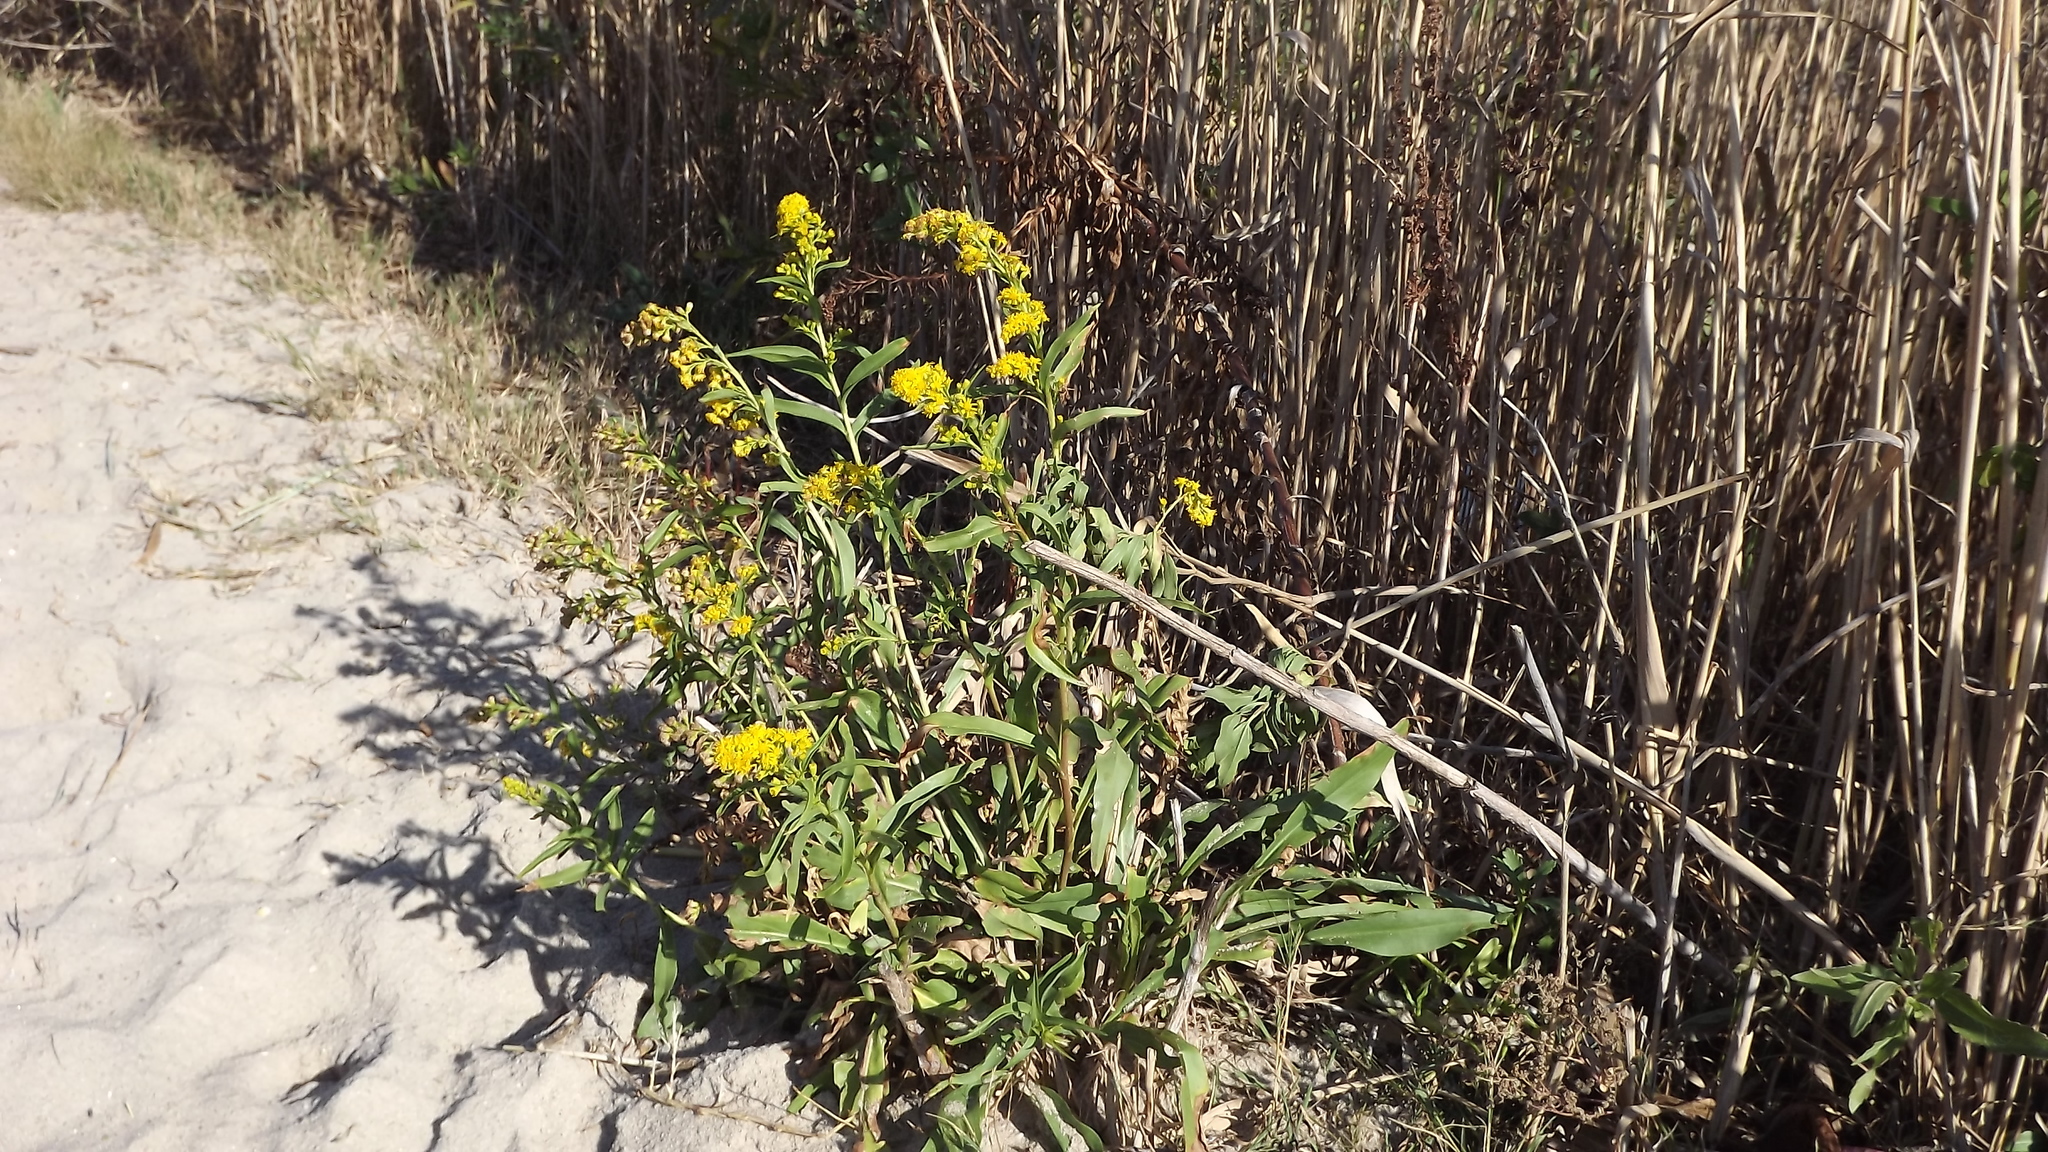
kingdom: Plantae
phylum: Tracheophyta
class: Magnoliopsida
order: Asterales
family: Asteraceae
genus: Solidago
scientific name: Solidago sempervirens
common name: Salt-marsh goldenrod
